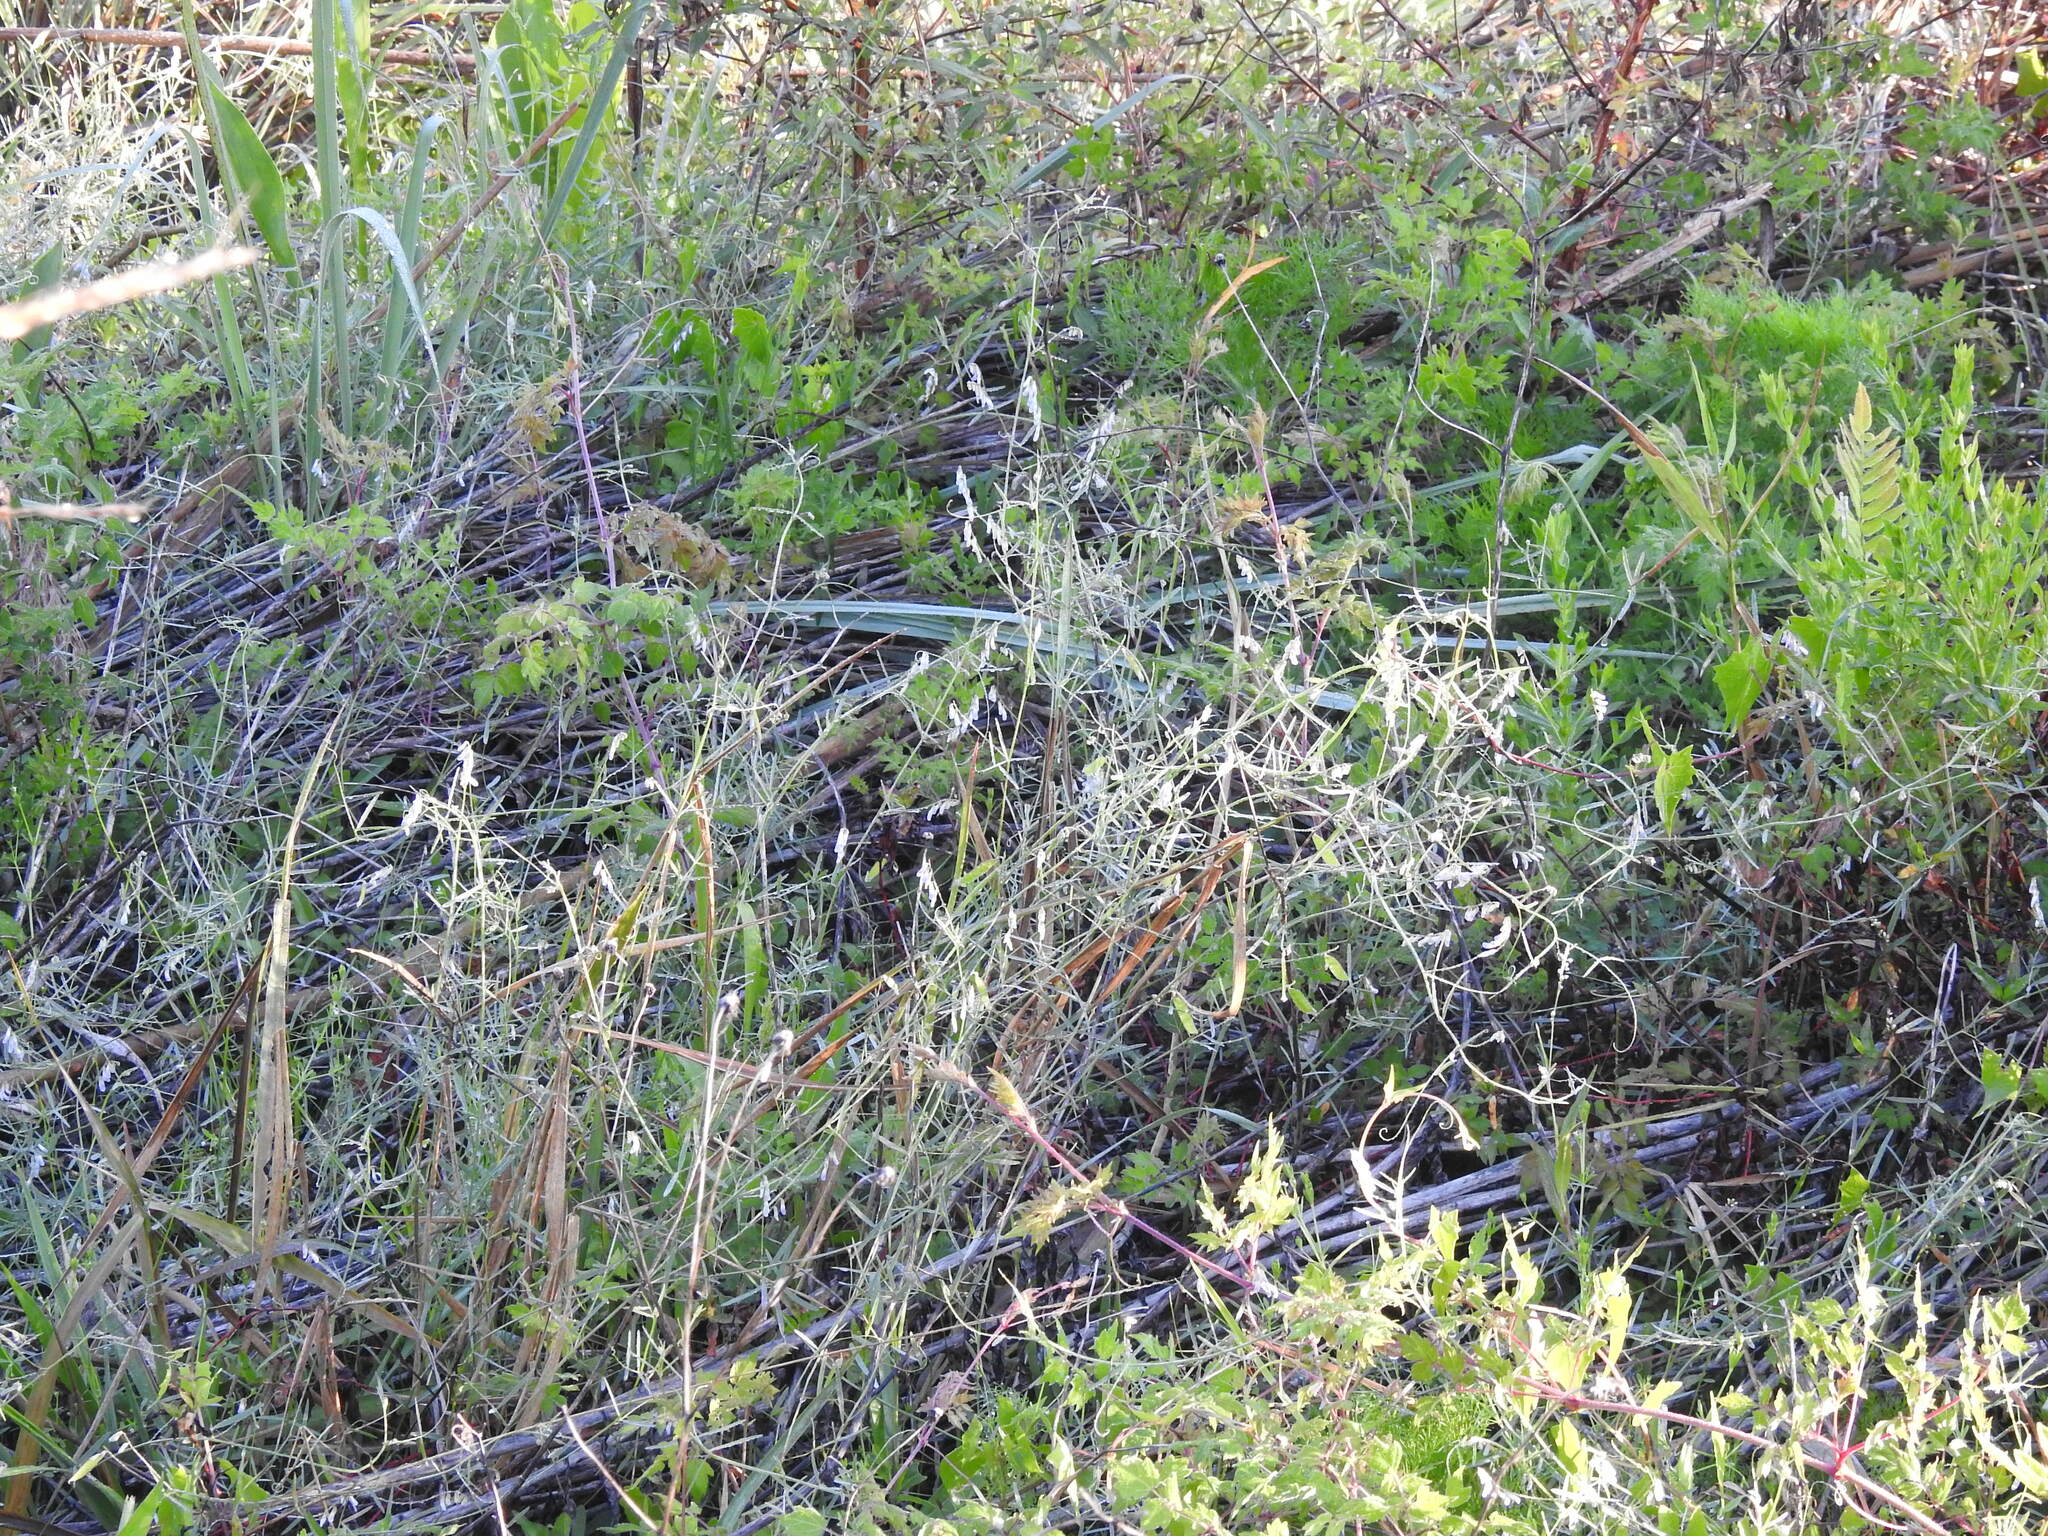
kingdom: Plantae
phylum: Tracheophyta
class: Magnoliopsida
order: Fabales
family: Fabaceae
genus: Vicia
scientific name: Vicia acutifolia
